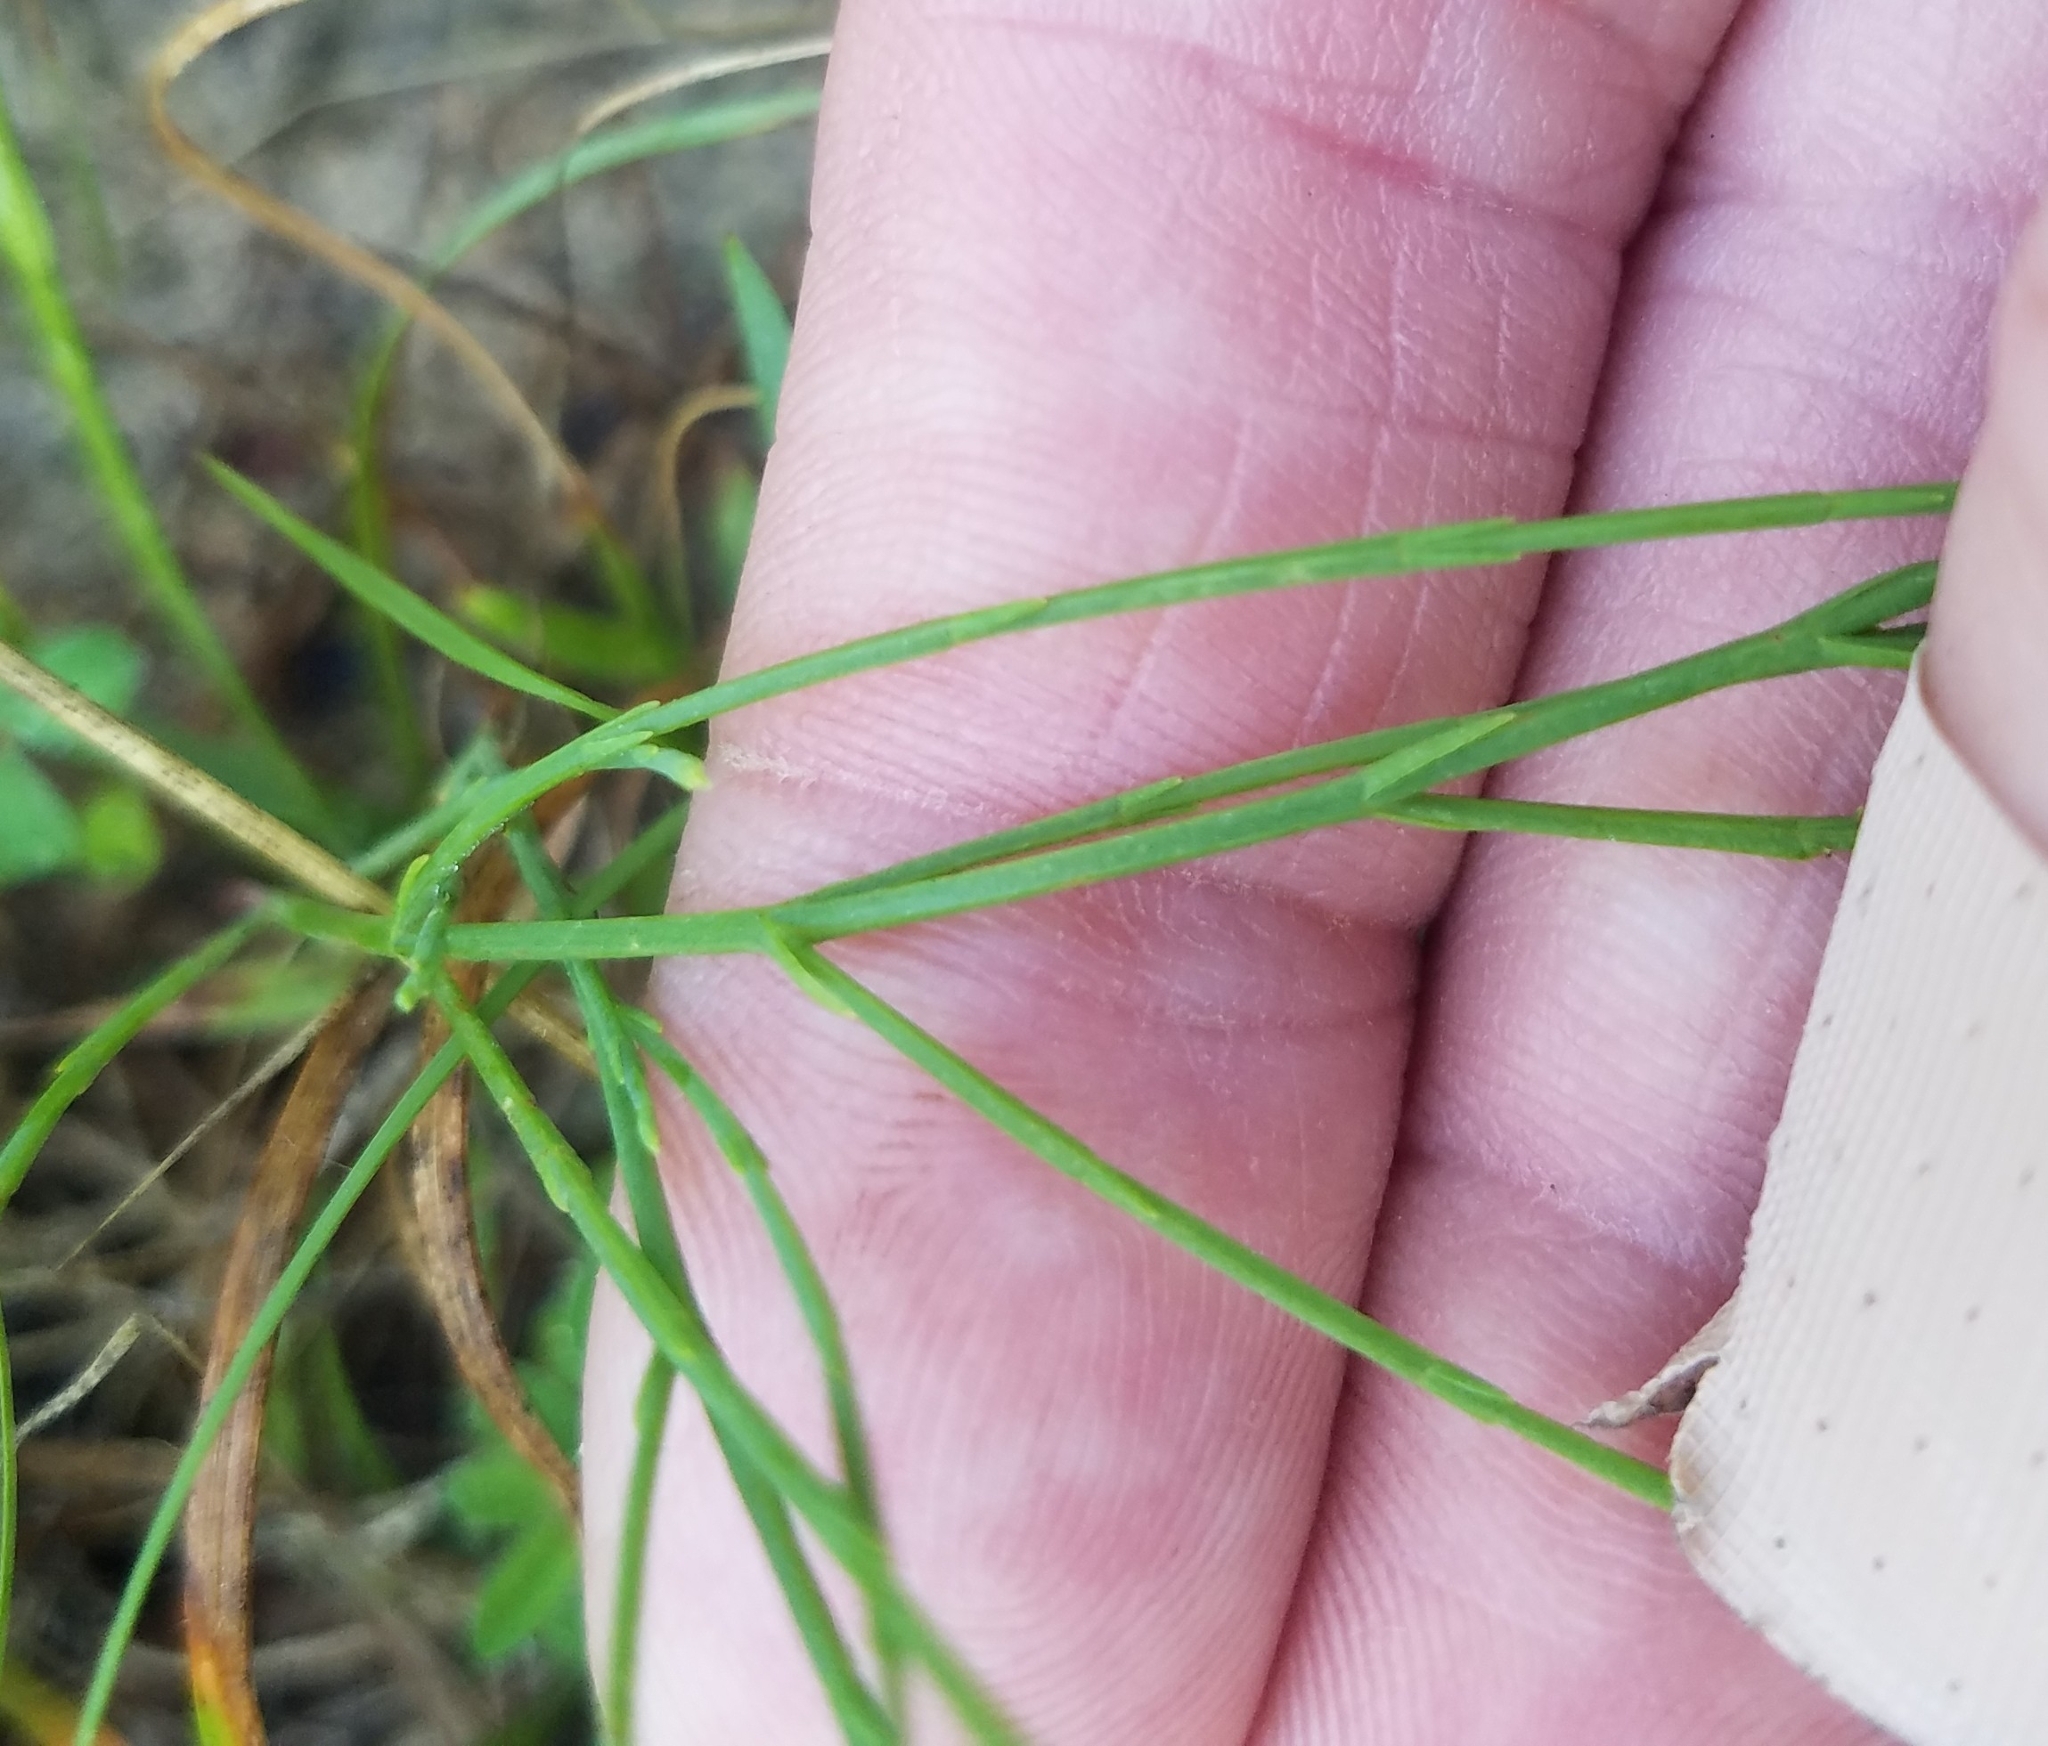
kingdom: Plantae
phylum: Tracheophyta
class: Magnoliopsida
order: Malpighiales
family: Hypericaceae
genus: Hypericum
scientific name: Hypericum gentianoides
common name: Gentian-leaved st. john's-wort
